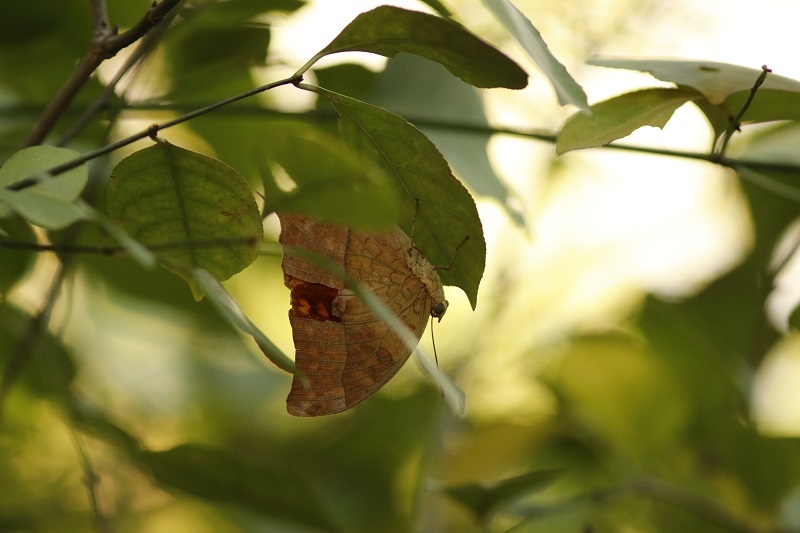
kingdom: Animalia
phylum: Arthropoda
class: Insecta
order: Lepidoptera
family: Nymphalidae
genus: Charaxes
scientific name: Charaxes varanes
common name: Common pearl charaxes
